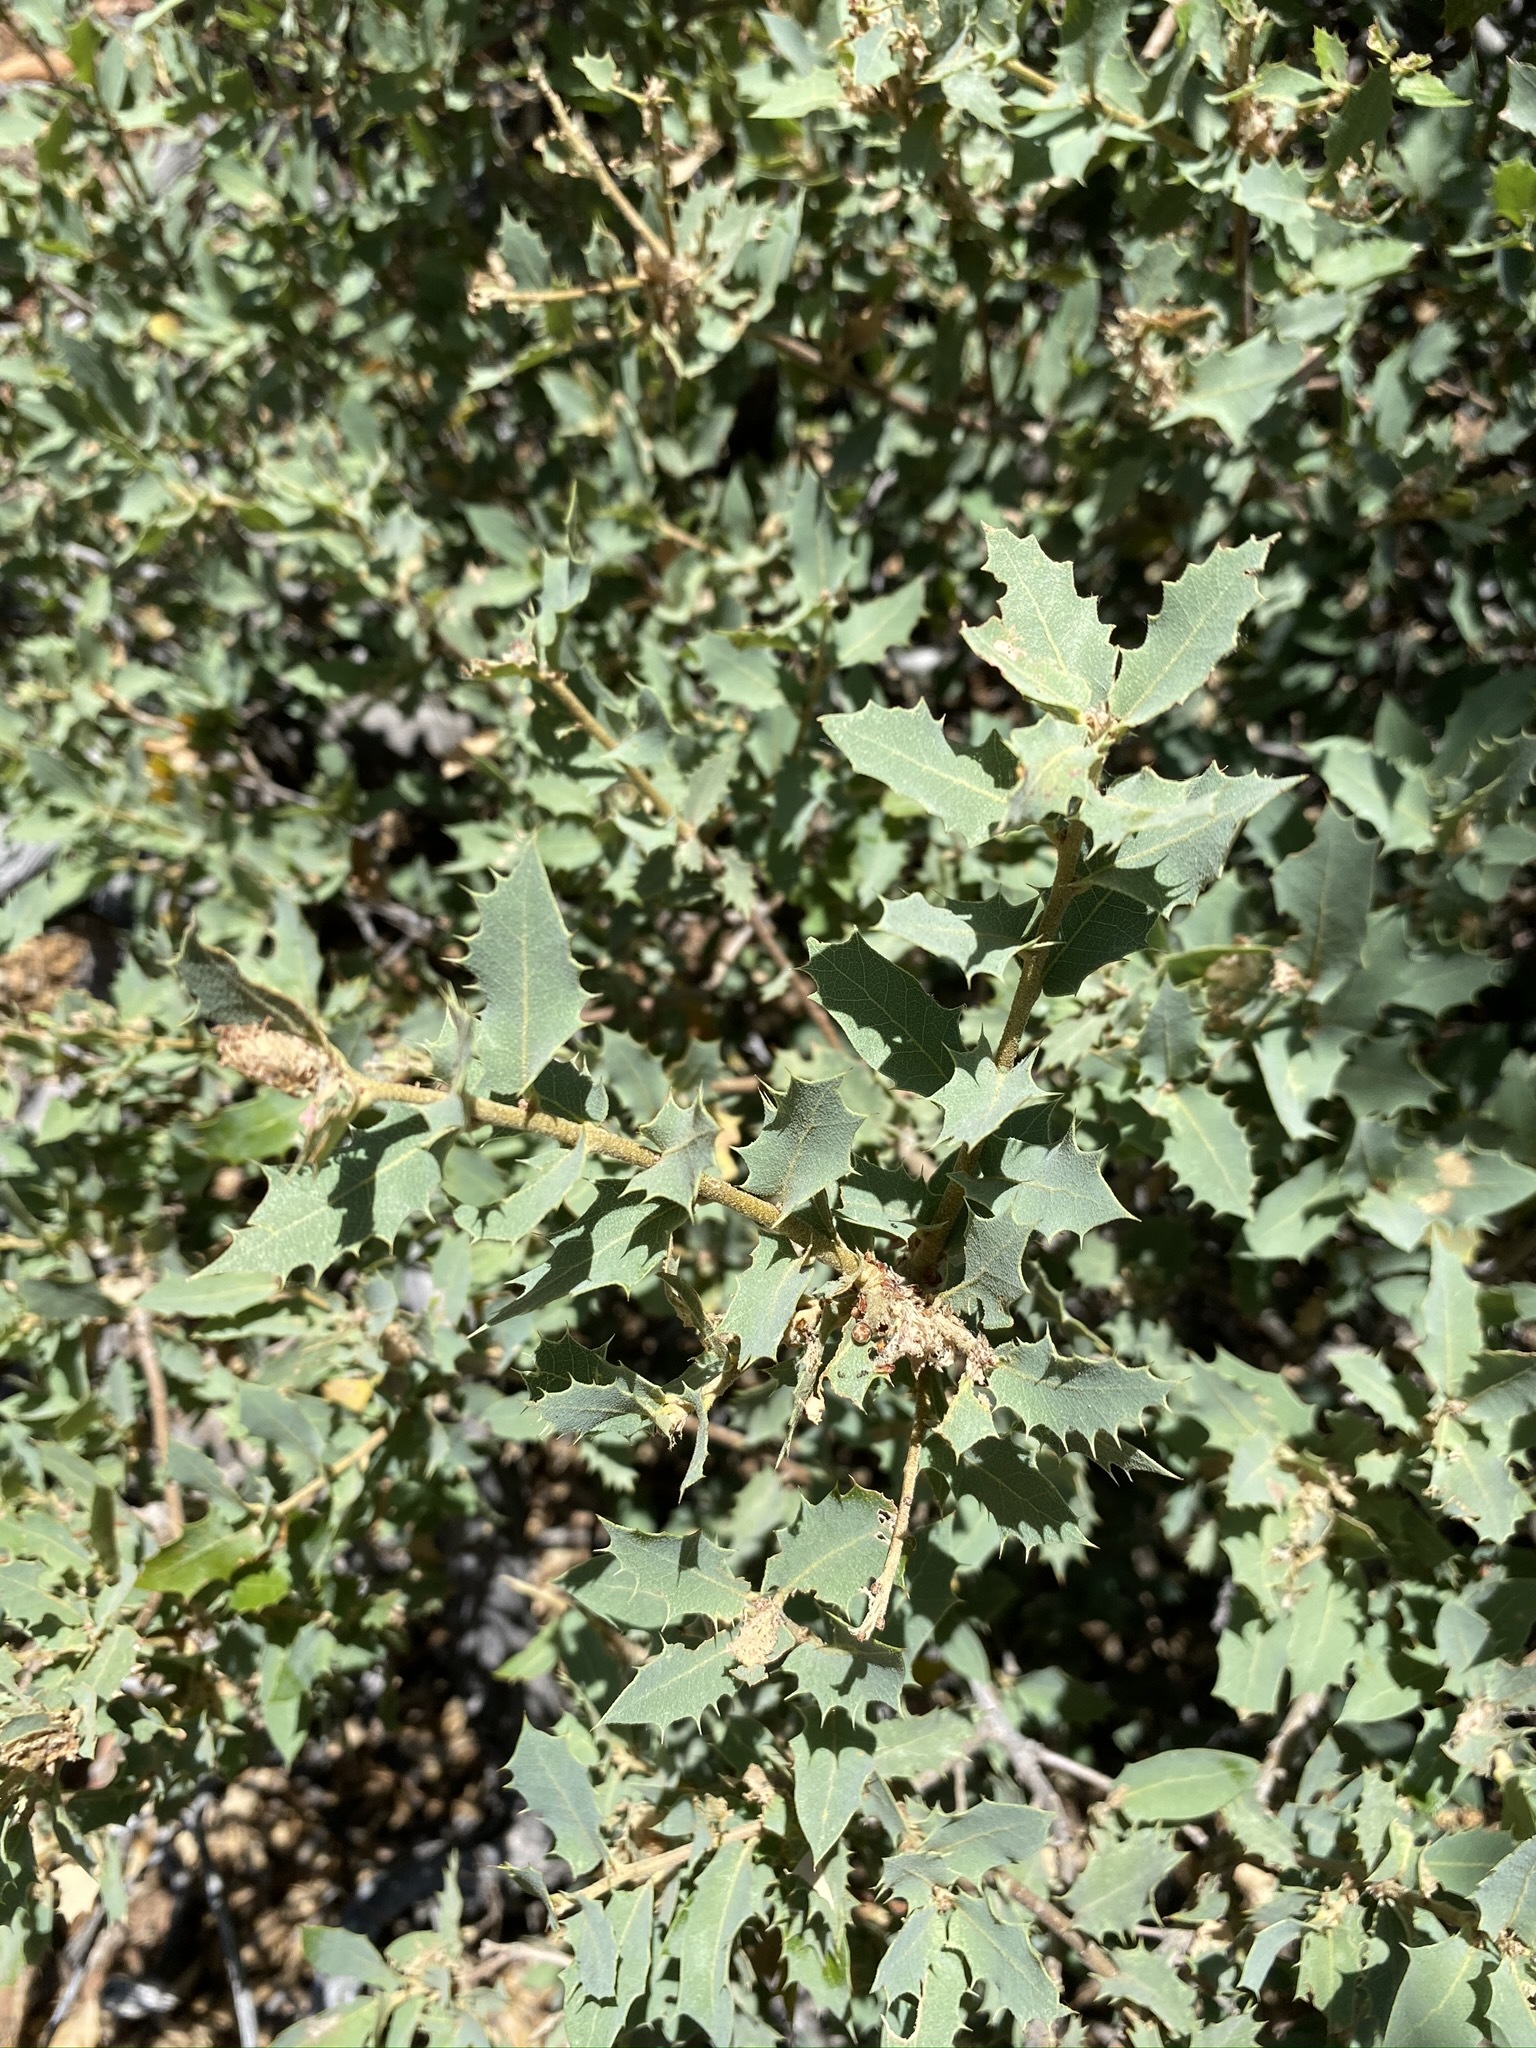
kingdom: Plantae
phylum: Tracheophyta
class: Magnoliopsida
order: Fagales
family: Fagaceae
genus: Quercus
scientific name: Quercus turbinella
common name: Sonoran scrub oak
